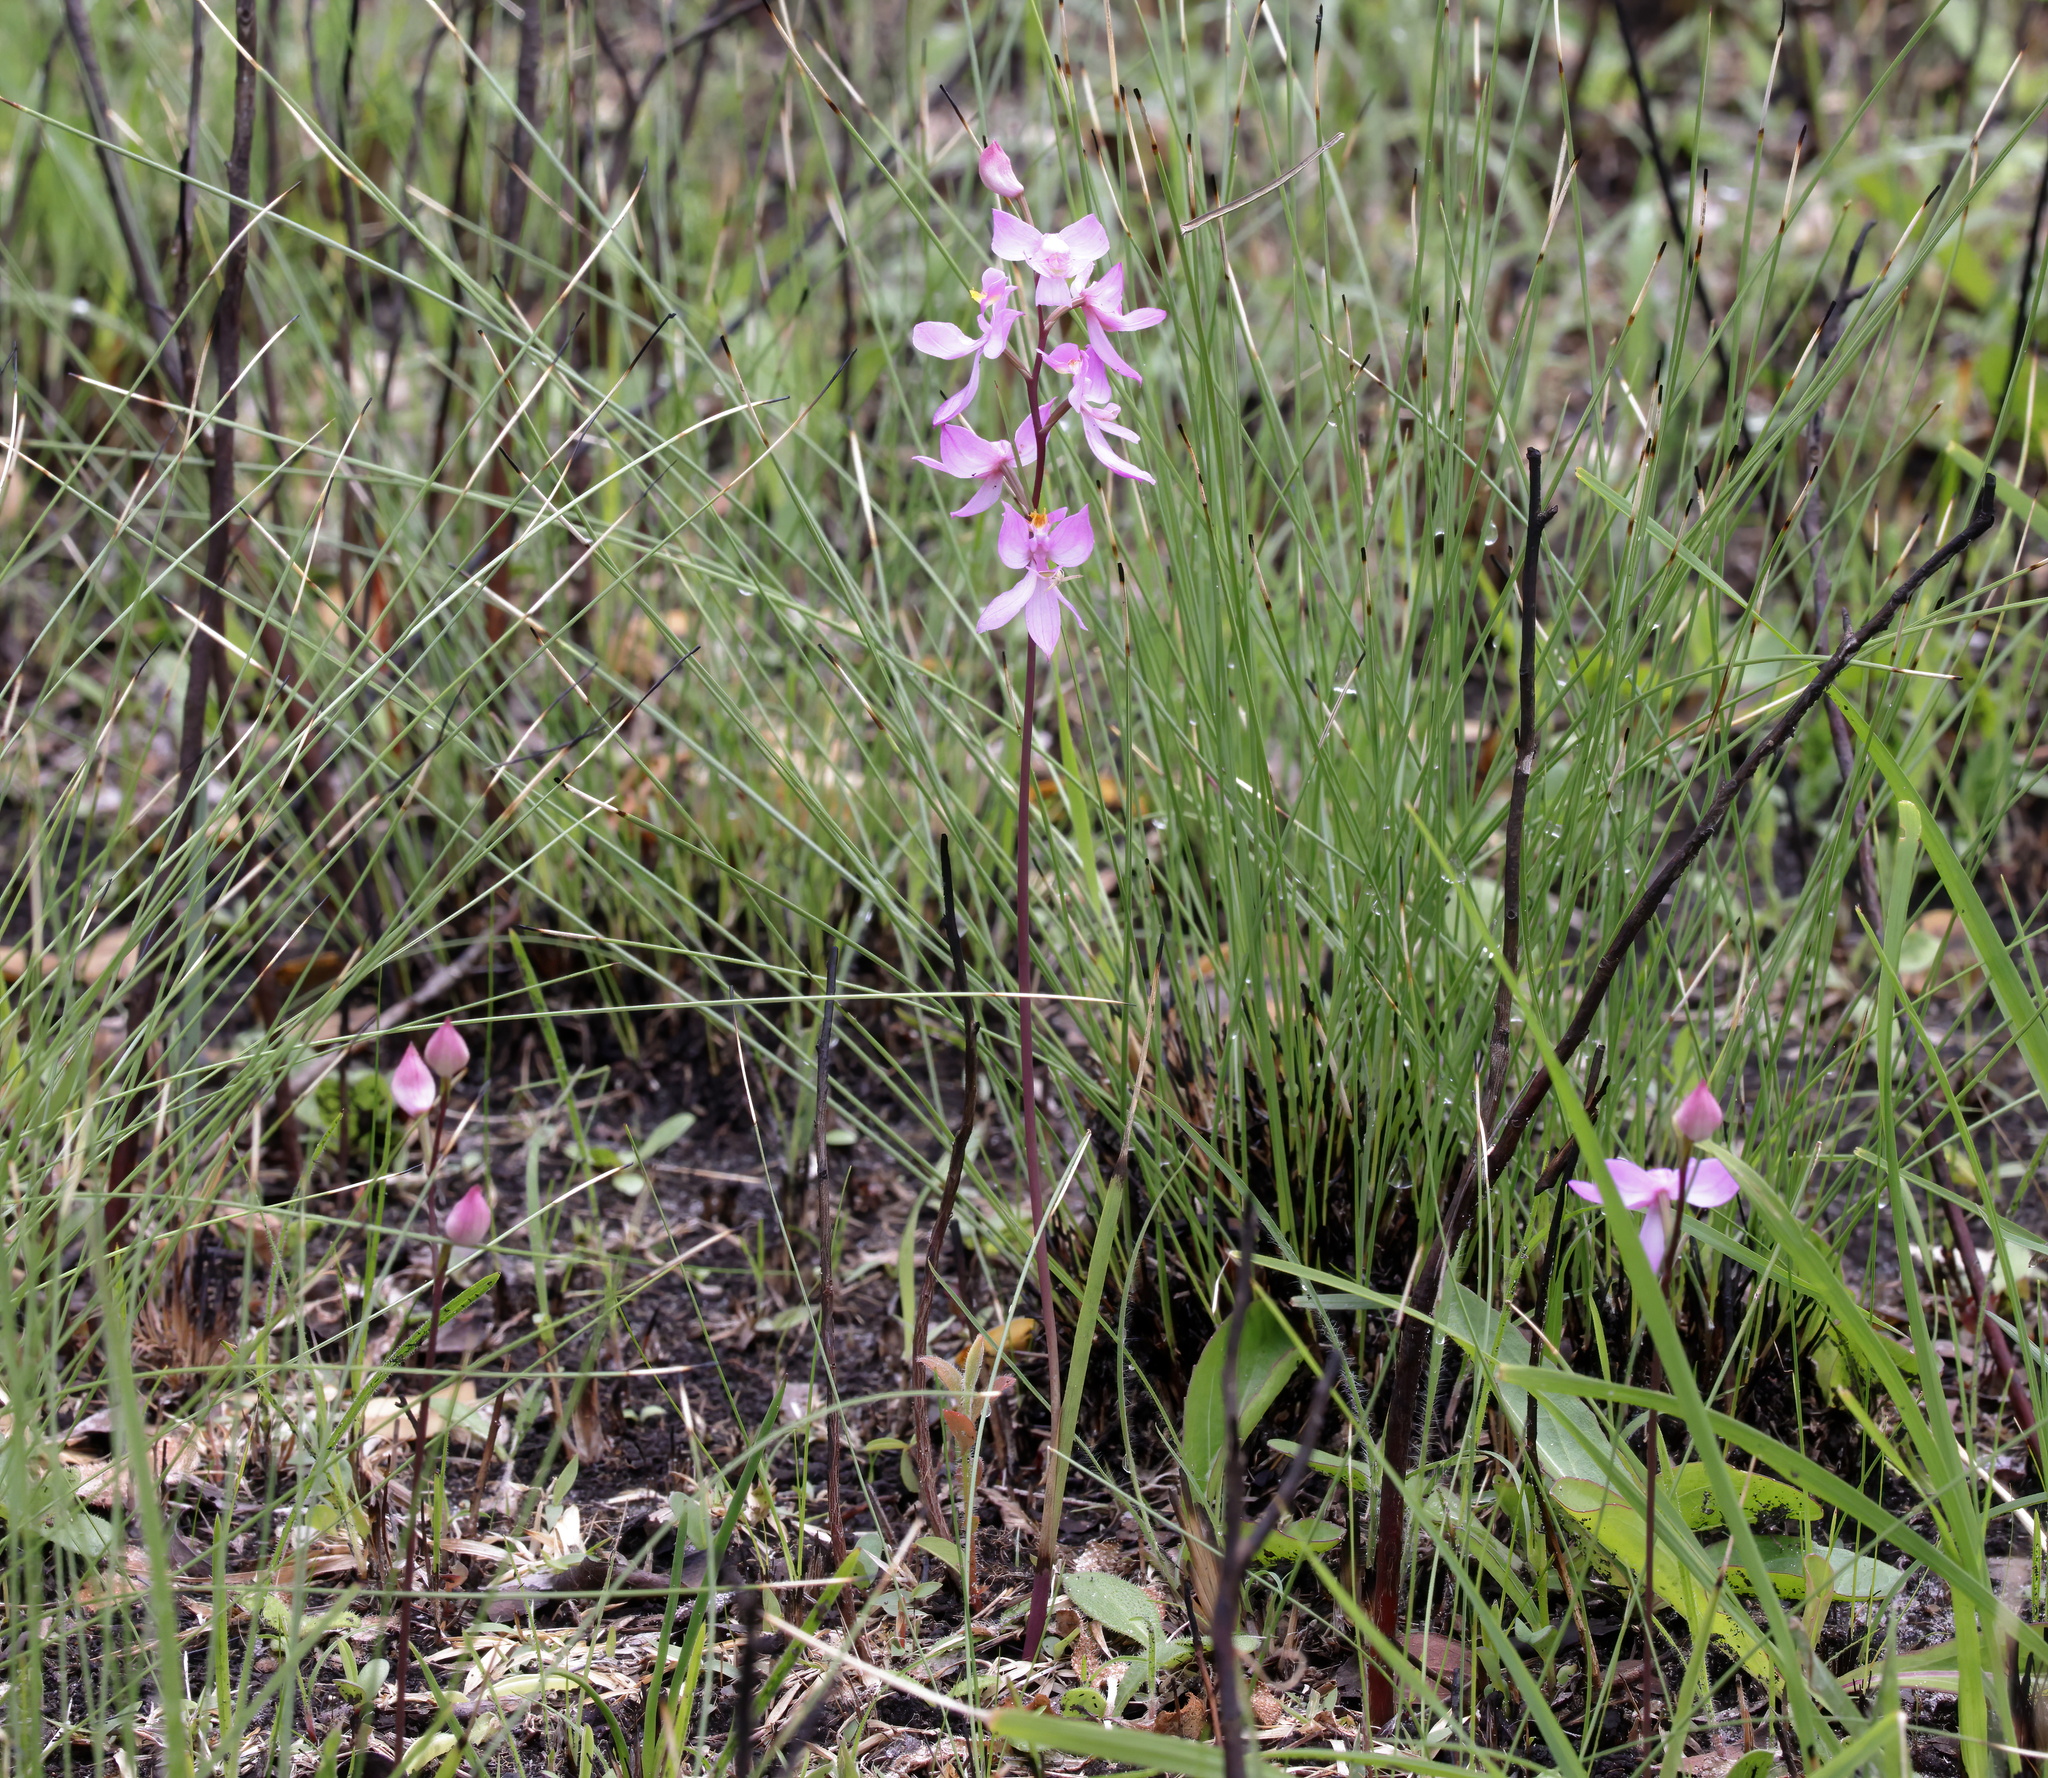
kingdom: Plantae
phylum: Tracheophyta
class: Liliopsida
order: Asparagales
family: Orchidaceae
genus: Calopogon
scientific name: Calopogon multiflorus
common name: Many-flowered grass-pink orchid
